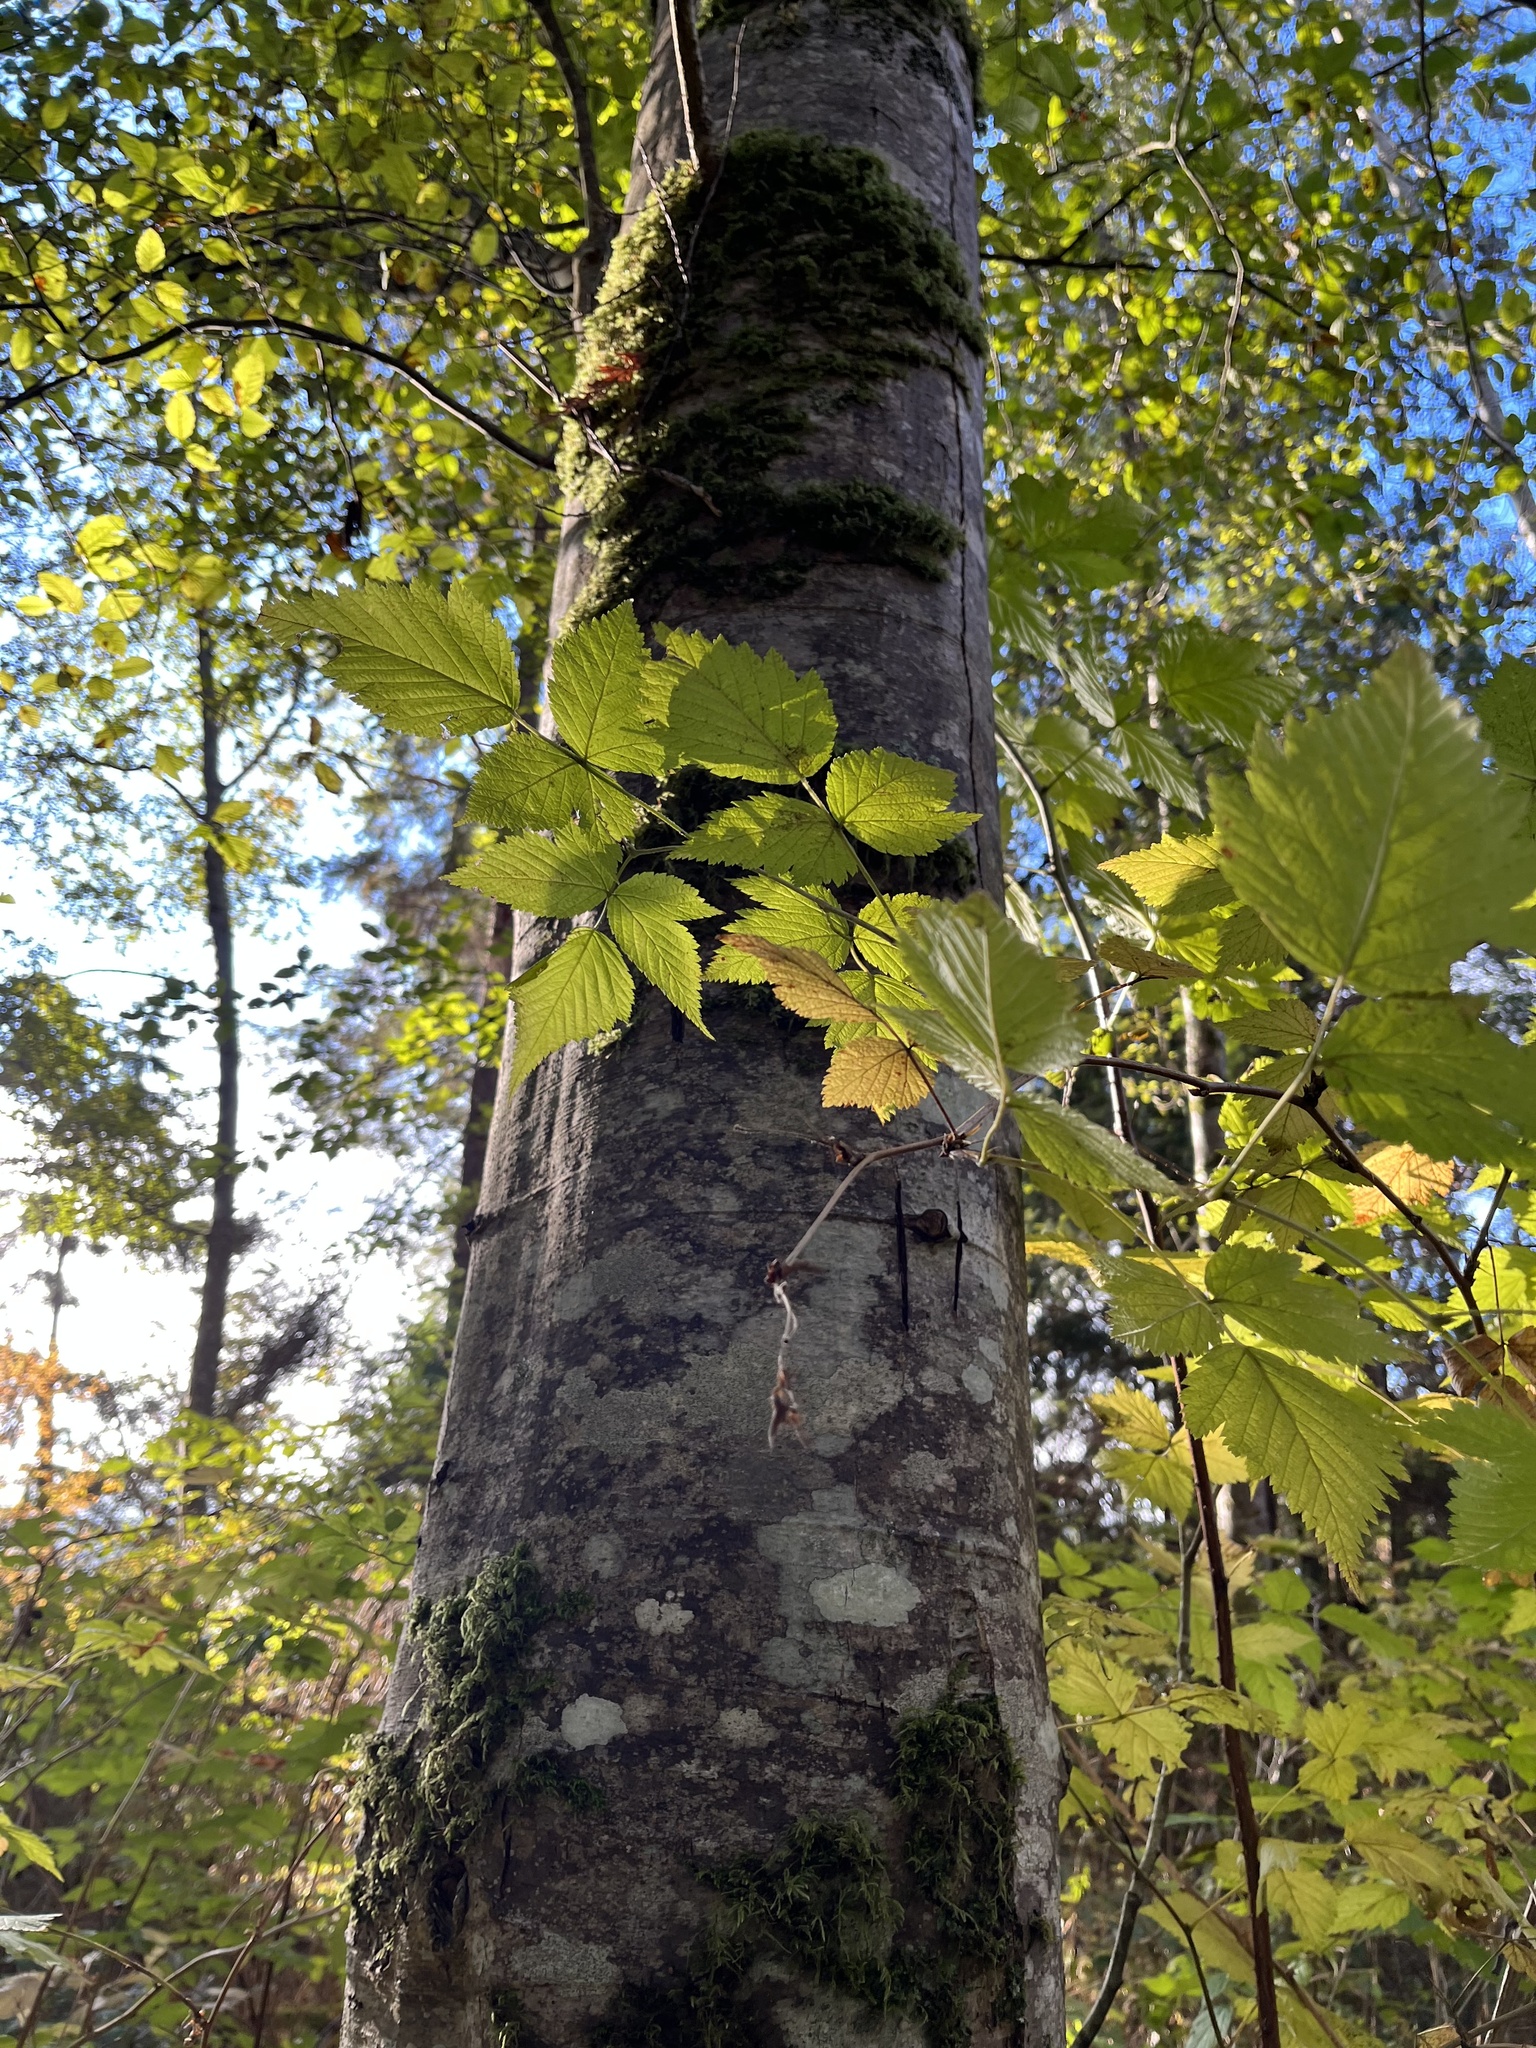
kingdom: Plantae
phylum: Tracheophyta
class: Magnoliopsida
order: Fagales
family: Betulaceae
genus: Alnus
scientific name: Alnus rubra
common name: Red alder
